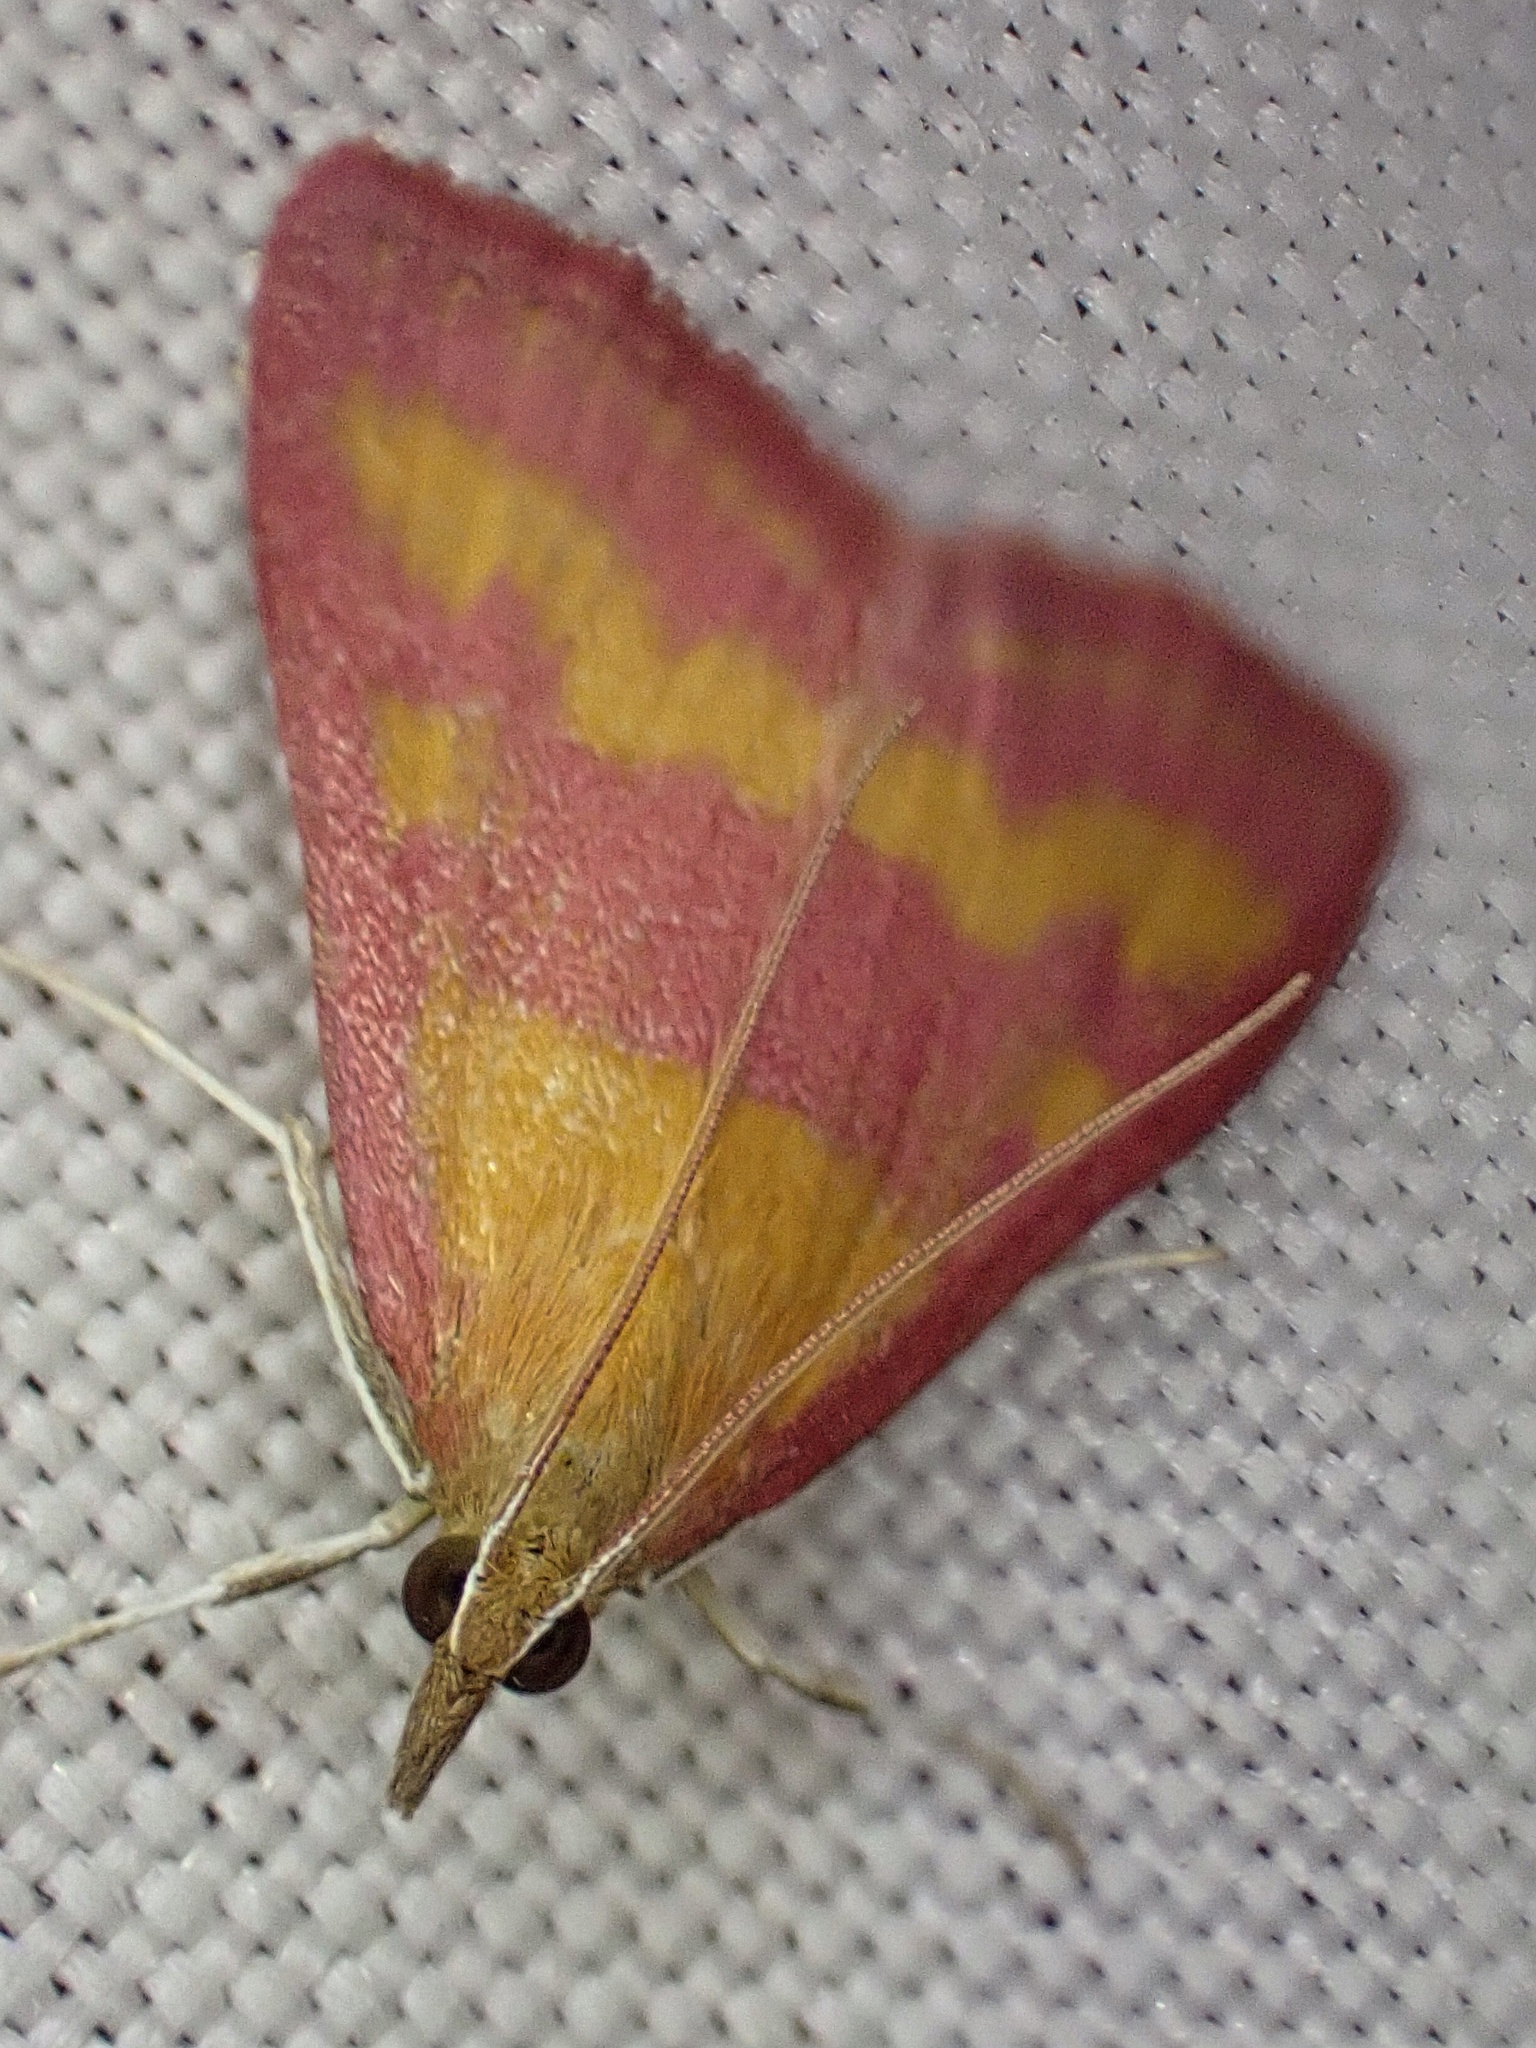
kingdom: Animalia
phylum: Arthropoda
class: Insecta
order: Lepidoptera
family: Crambidae
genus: Pyrausta
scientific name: Pyrausta laticlavia
